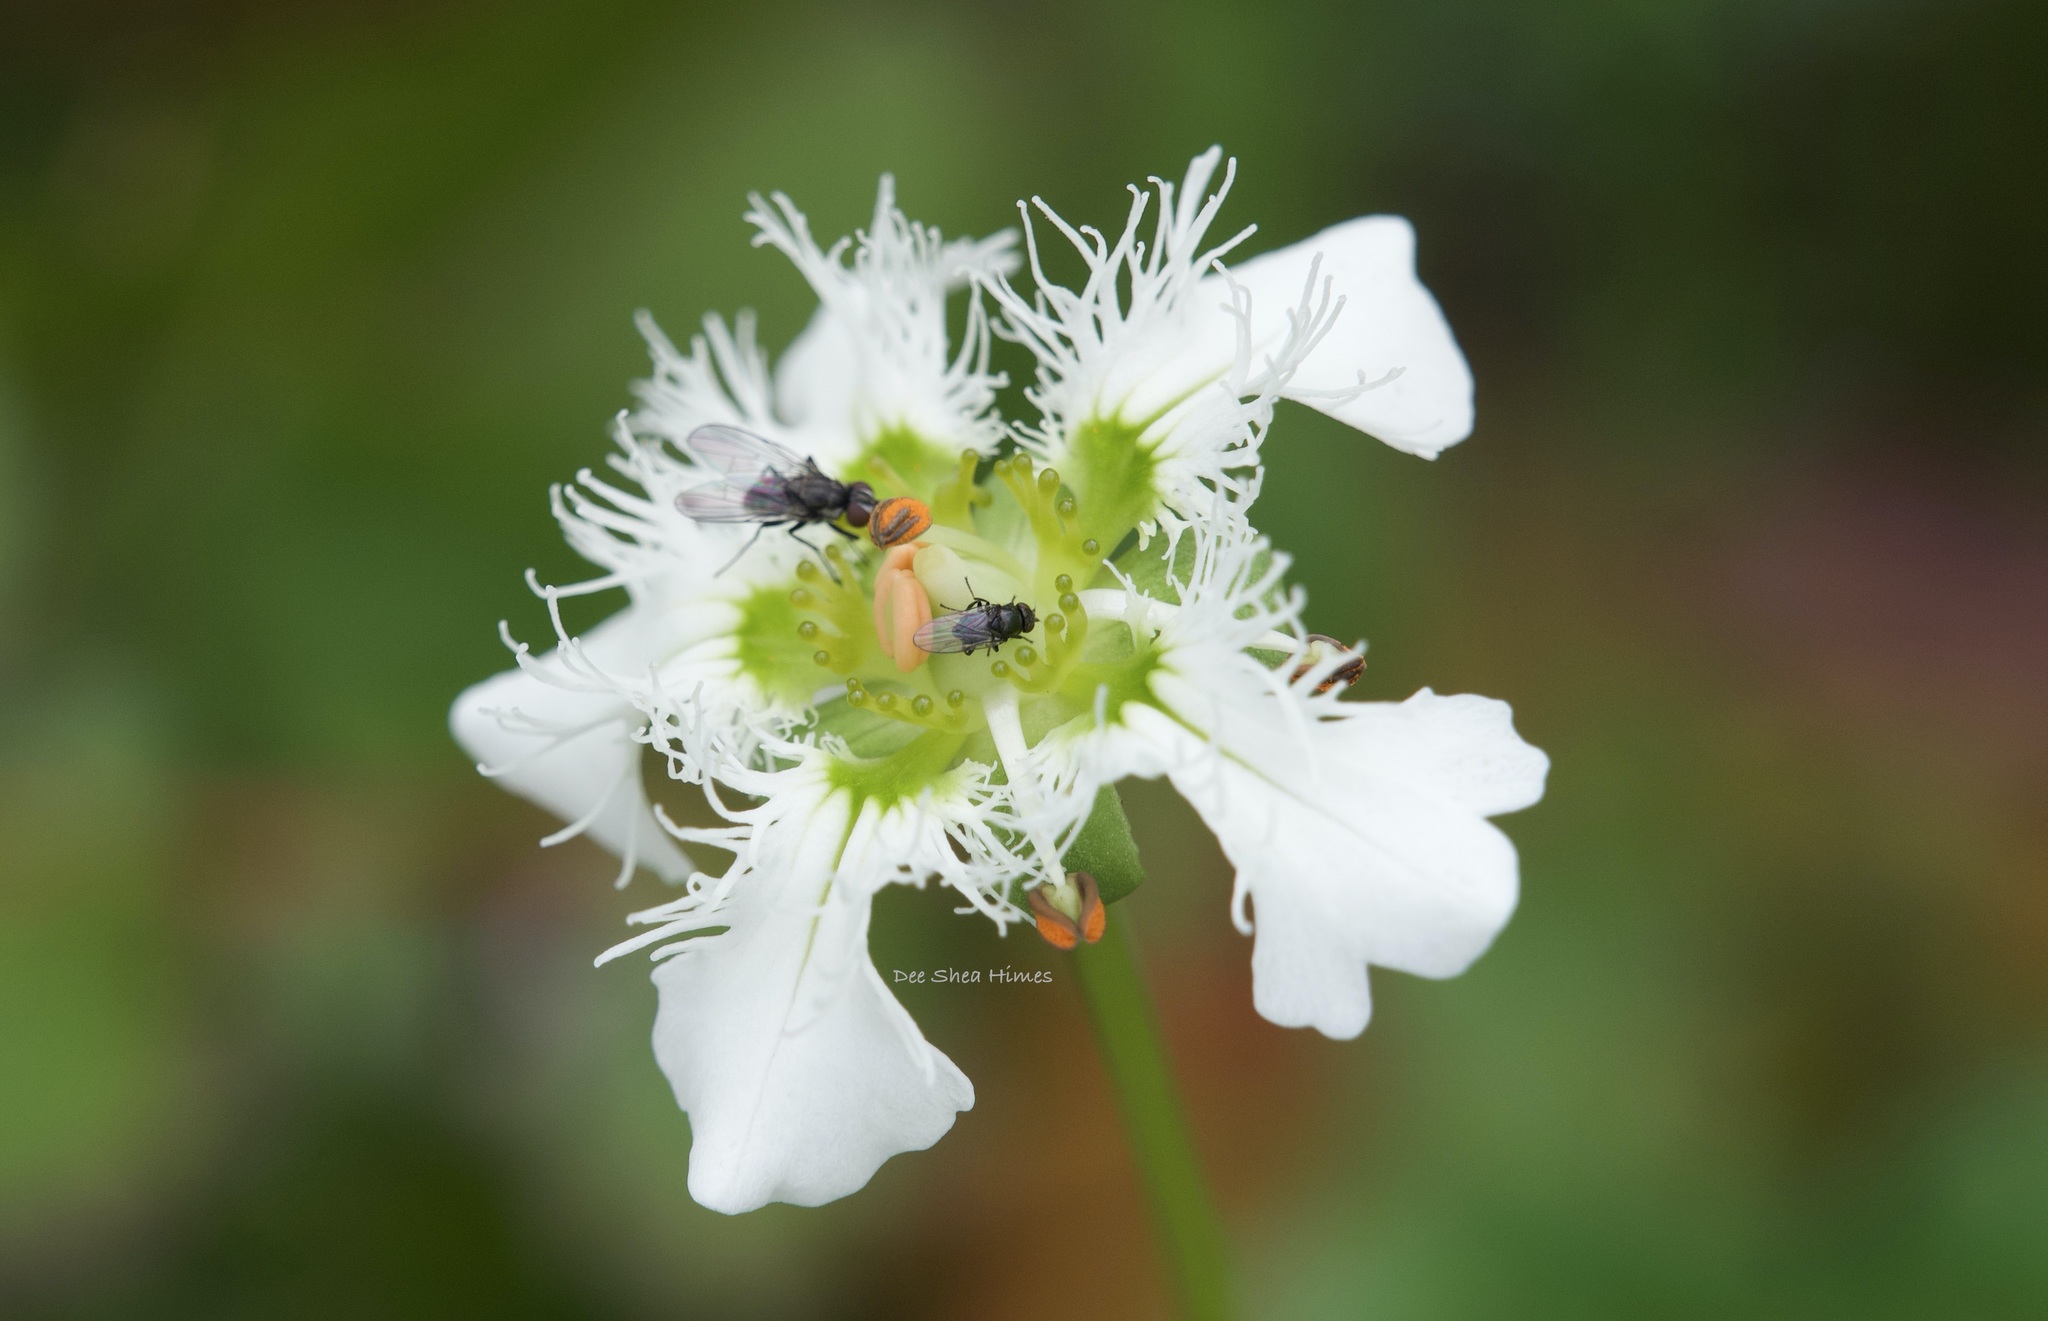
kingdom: Plantae
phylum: Tracheophyta
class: Magnoliopsida
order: Celastrales
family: Parnassiaceae
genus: Parnassia
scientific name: Parnassia wightiana
